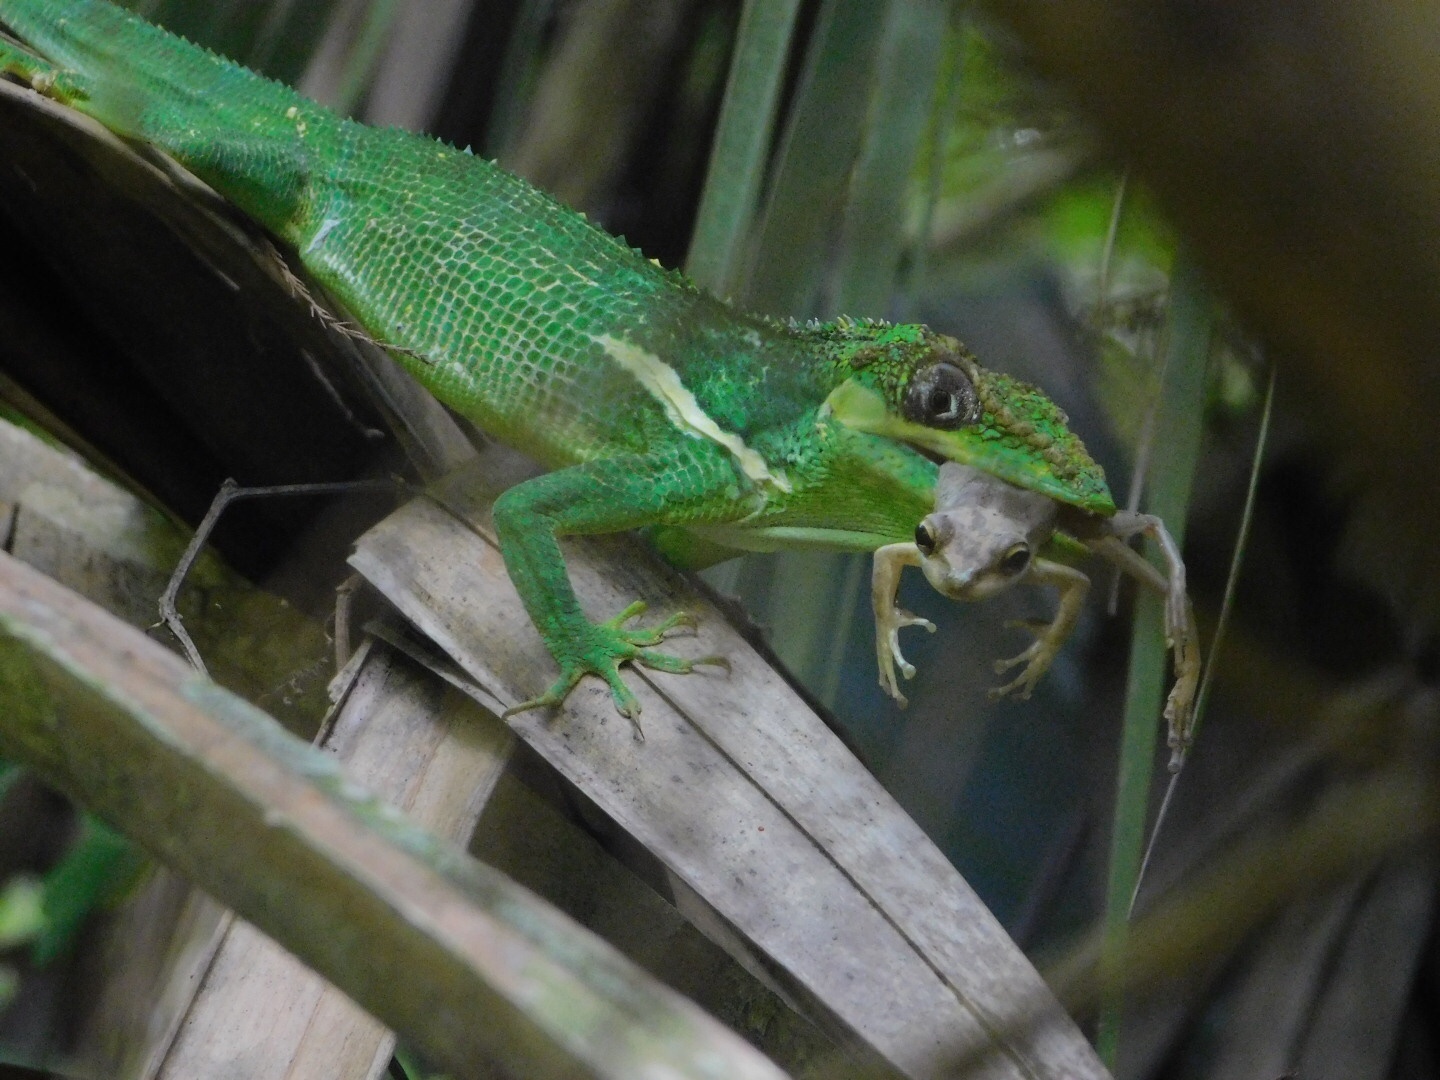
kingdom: Animalia
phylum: Chordata
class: Amphibia
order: Anura
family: Hylidae
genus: Osteopilus
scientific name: Osteopilus septentrionalis
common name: Cuban treefrog
